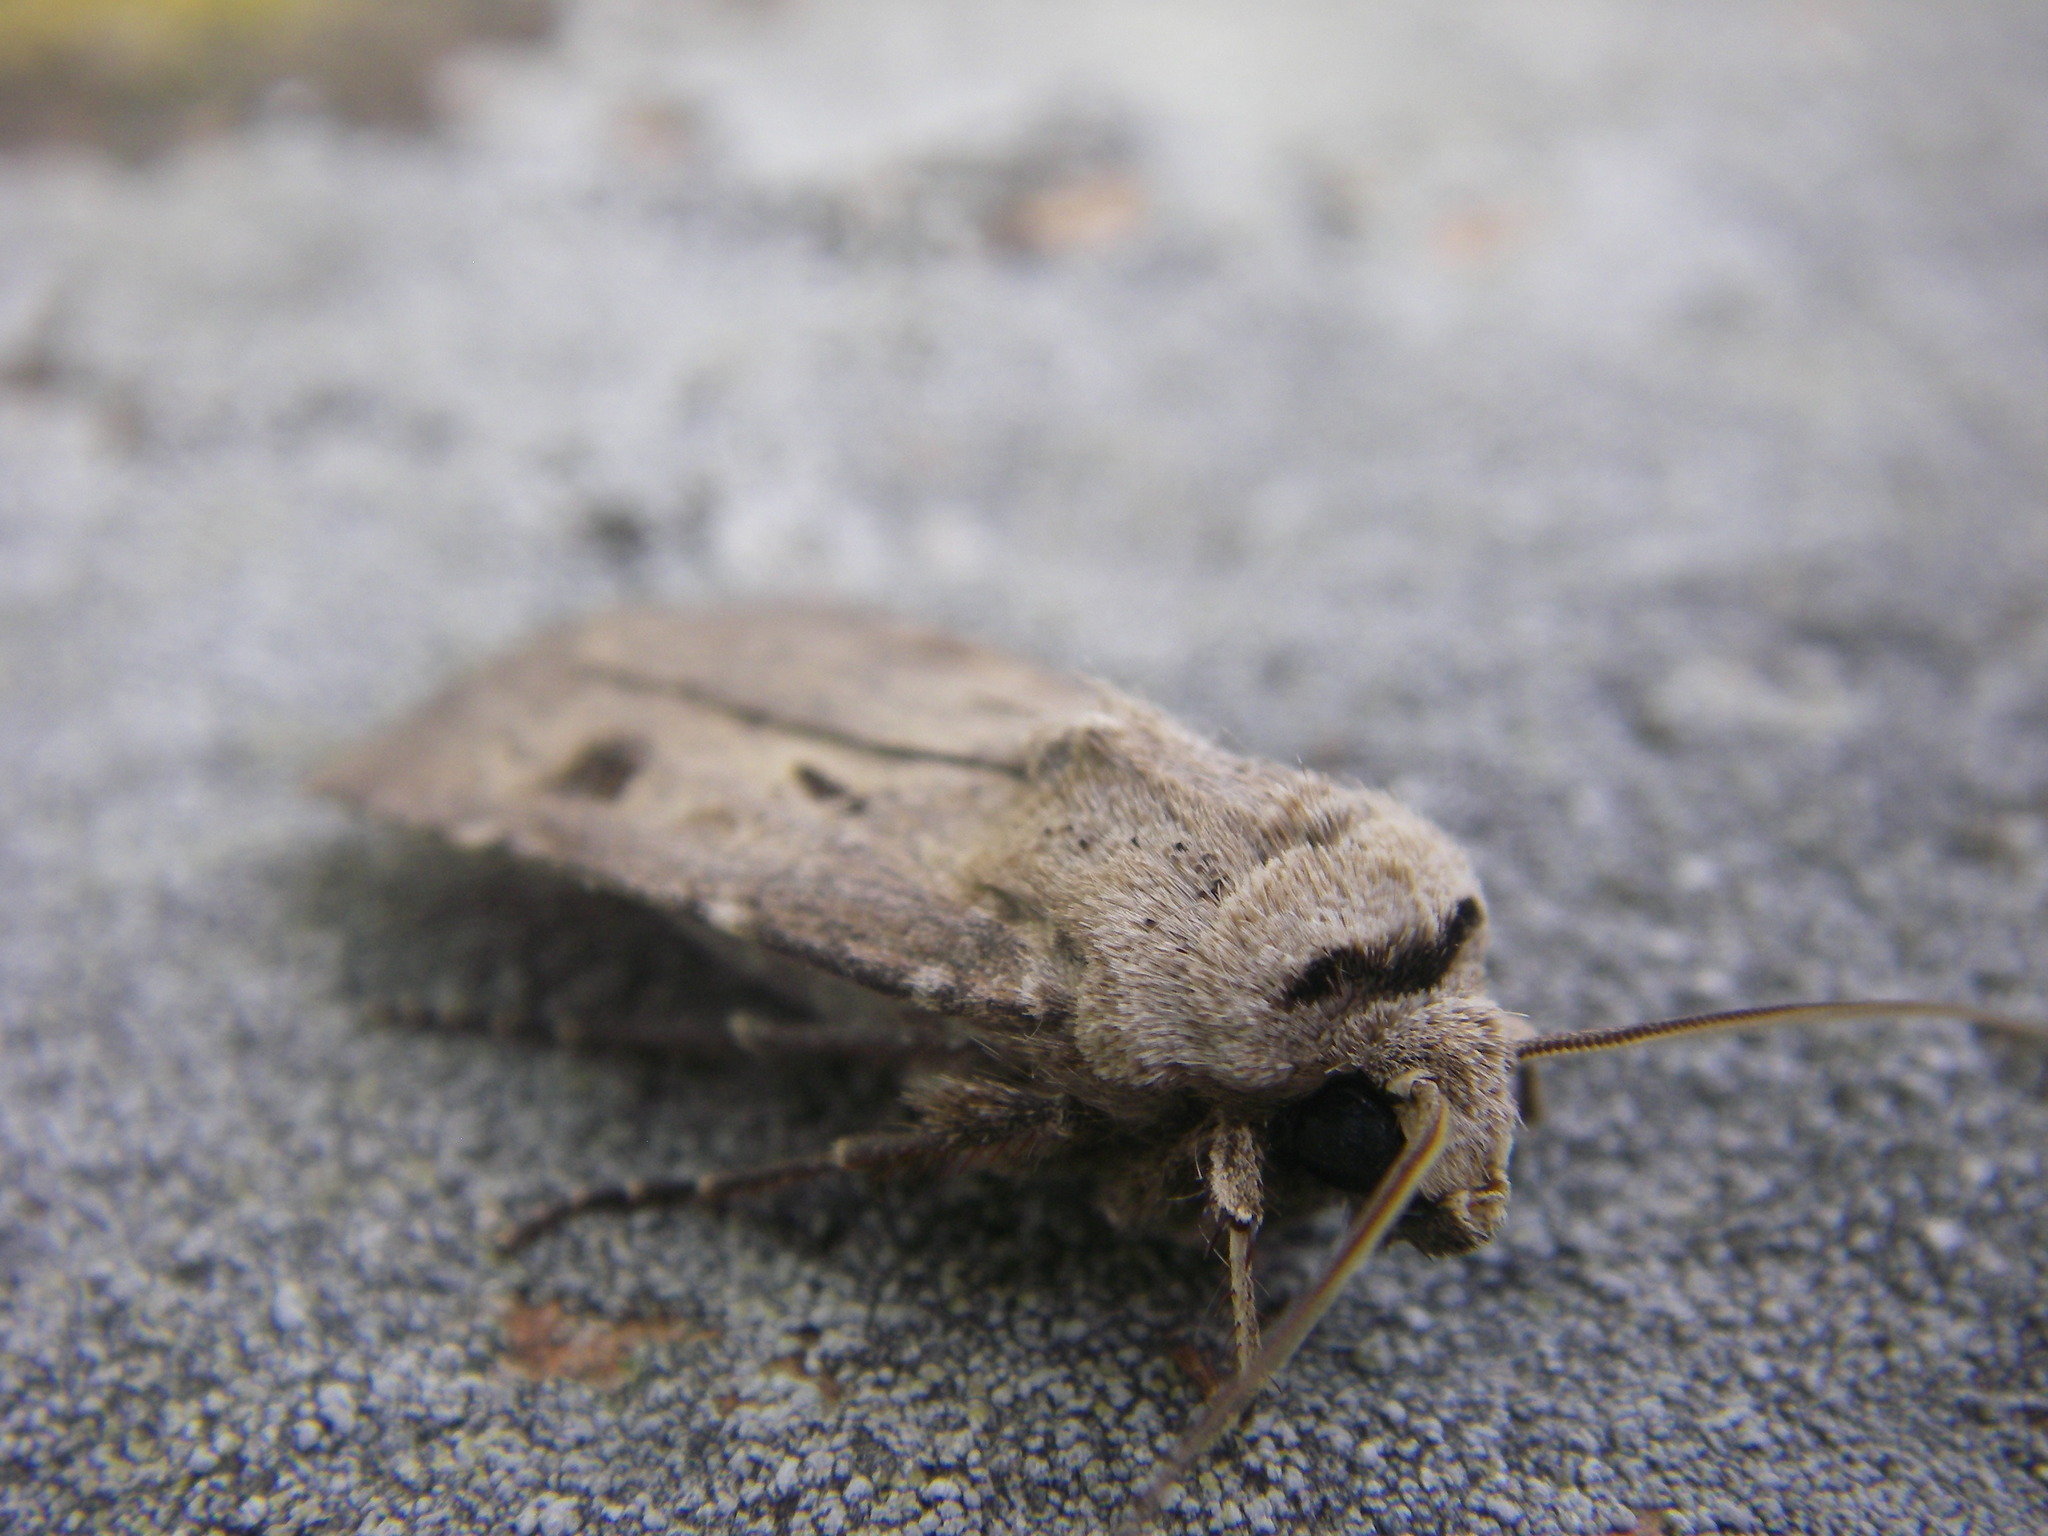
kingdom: Animalia
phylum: Arthropoda
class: Insecta
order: Lepidoptera
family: Noctuidae
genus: Agrotis
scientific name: Agrotis exclamationis
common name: Heart and dart
